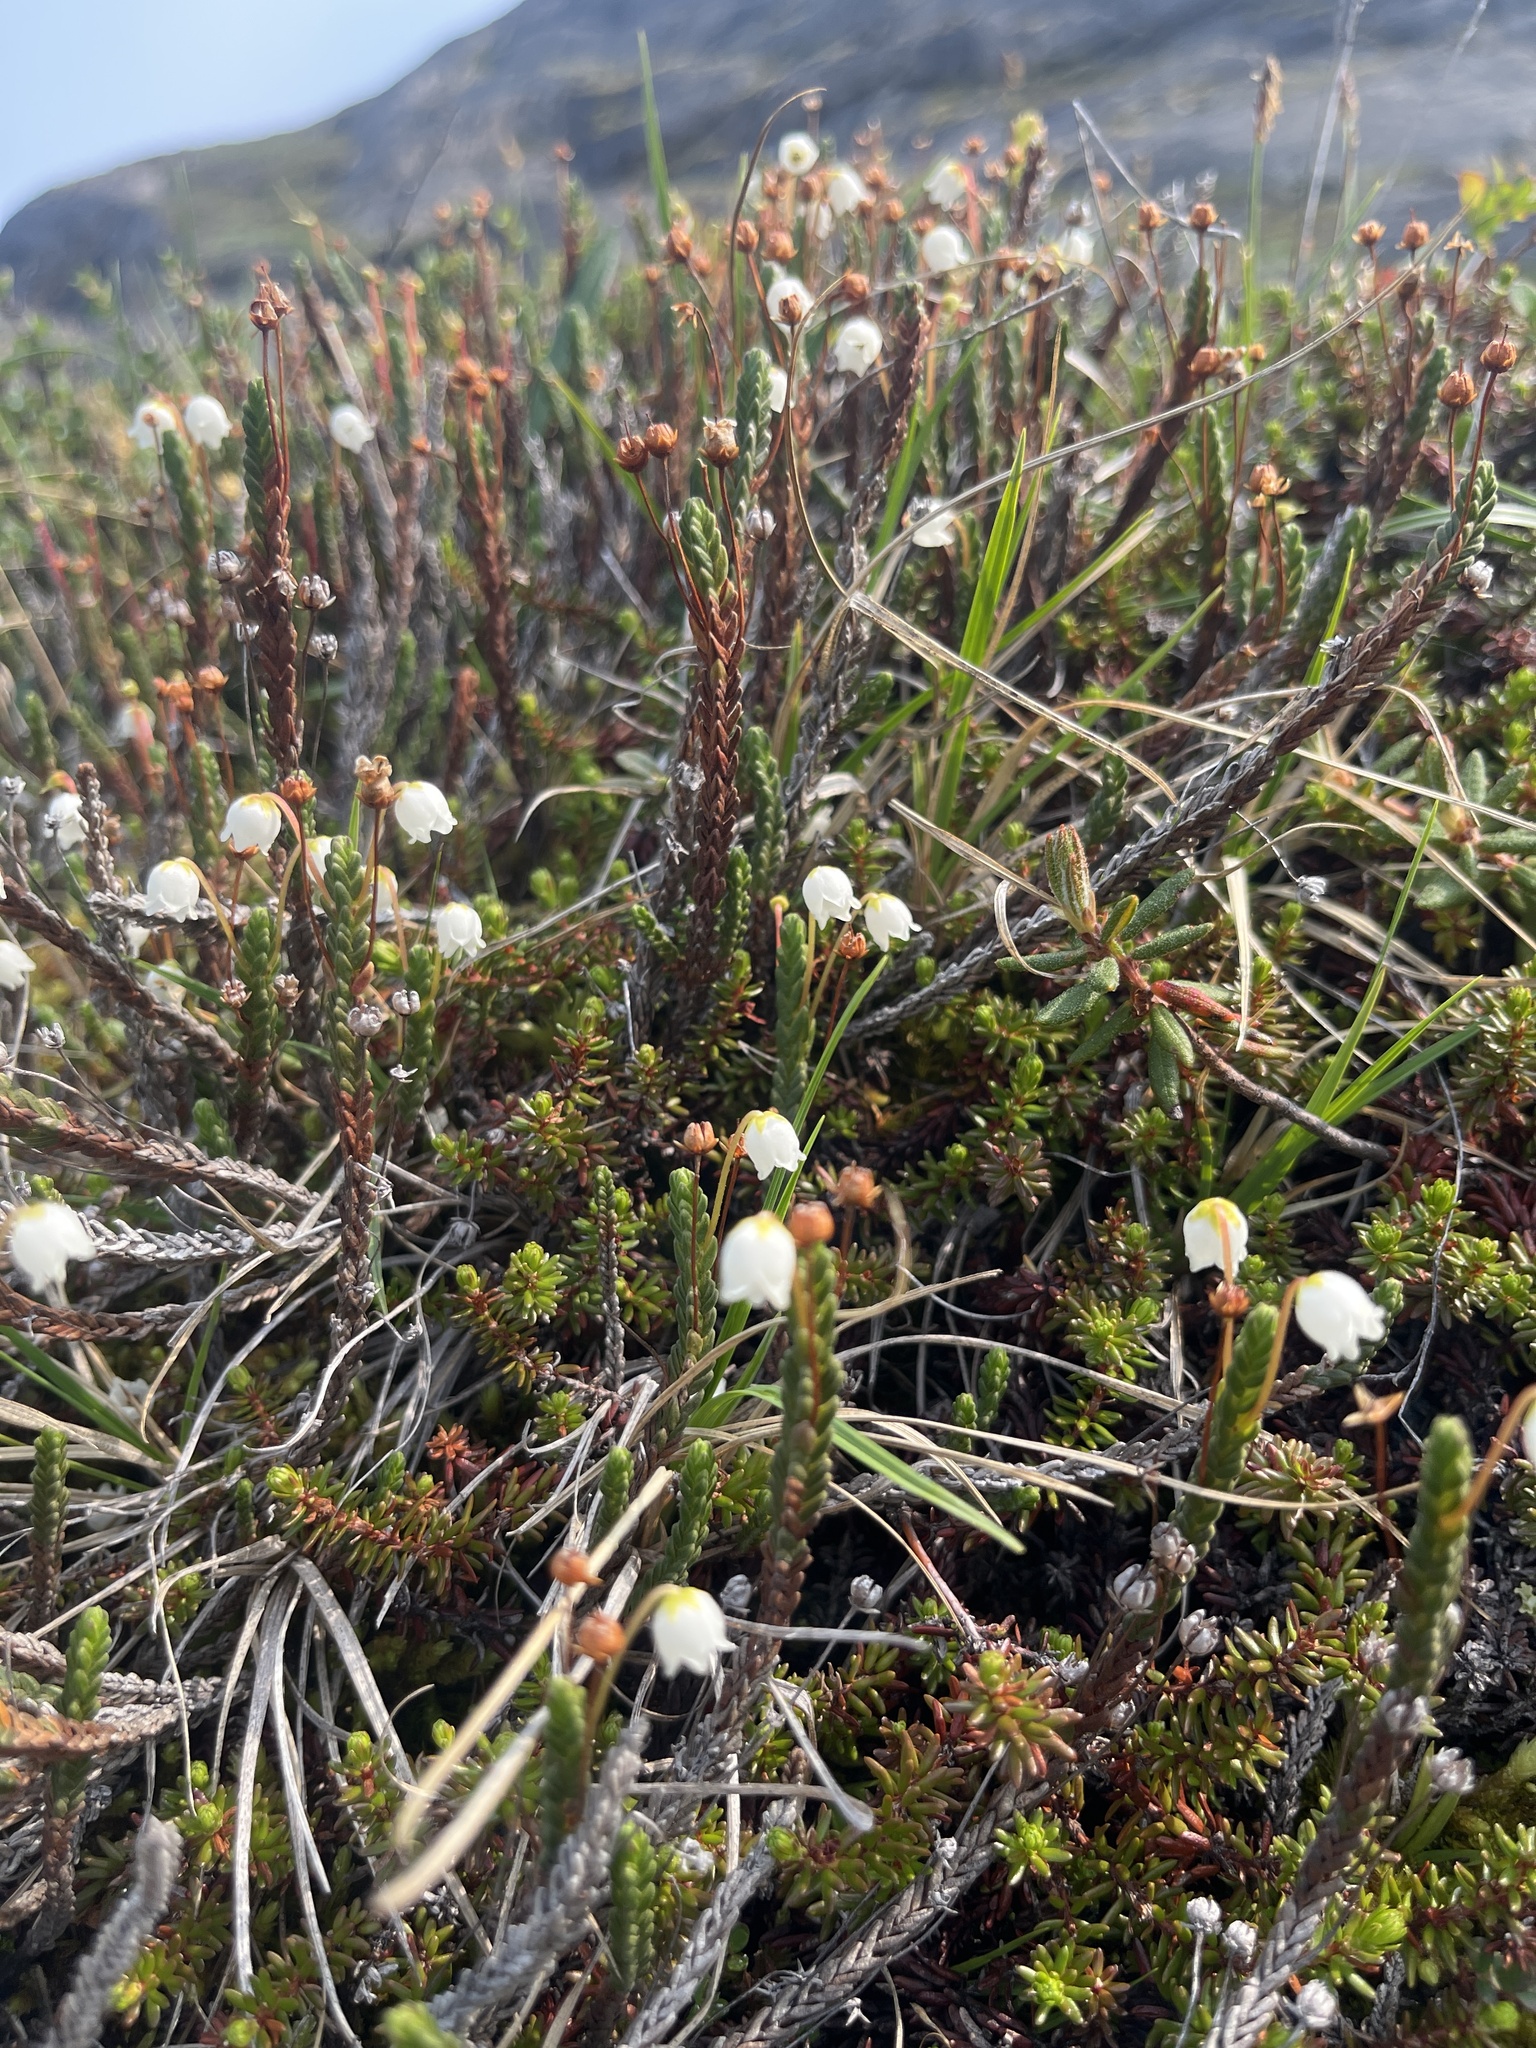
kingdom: Plantae
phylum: Tracheophyta
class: Magnoliopsida
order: Ericales
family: Ericaceae
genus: Cassiope
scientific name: Cassiope tetragona
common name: Arctic bell heather
